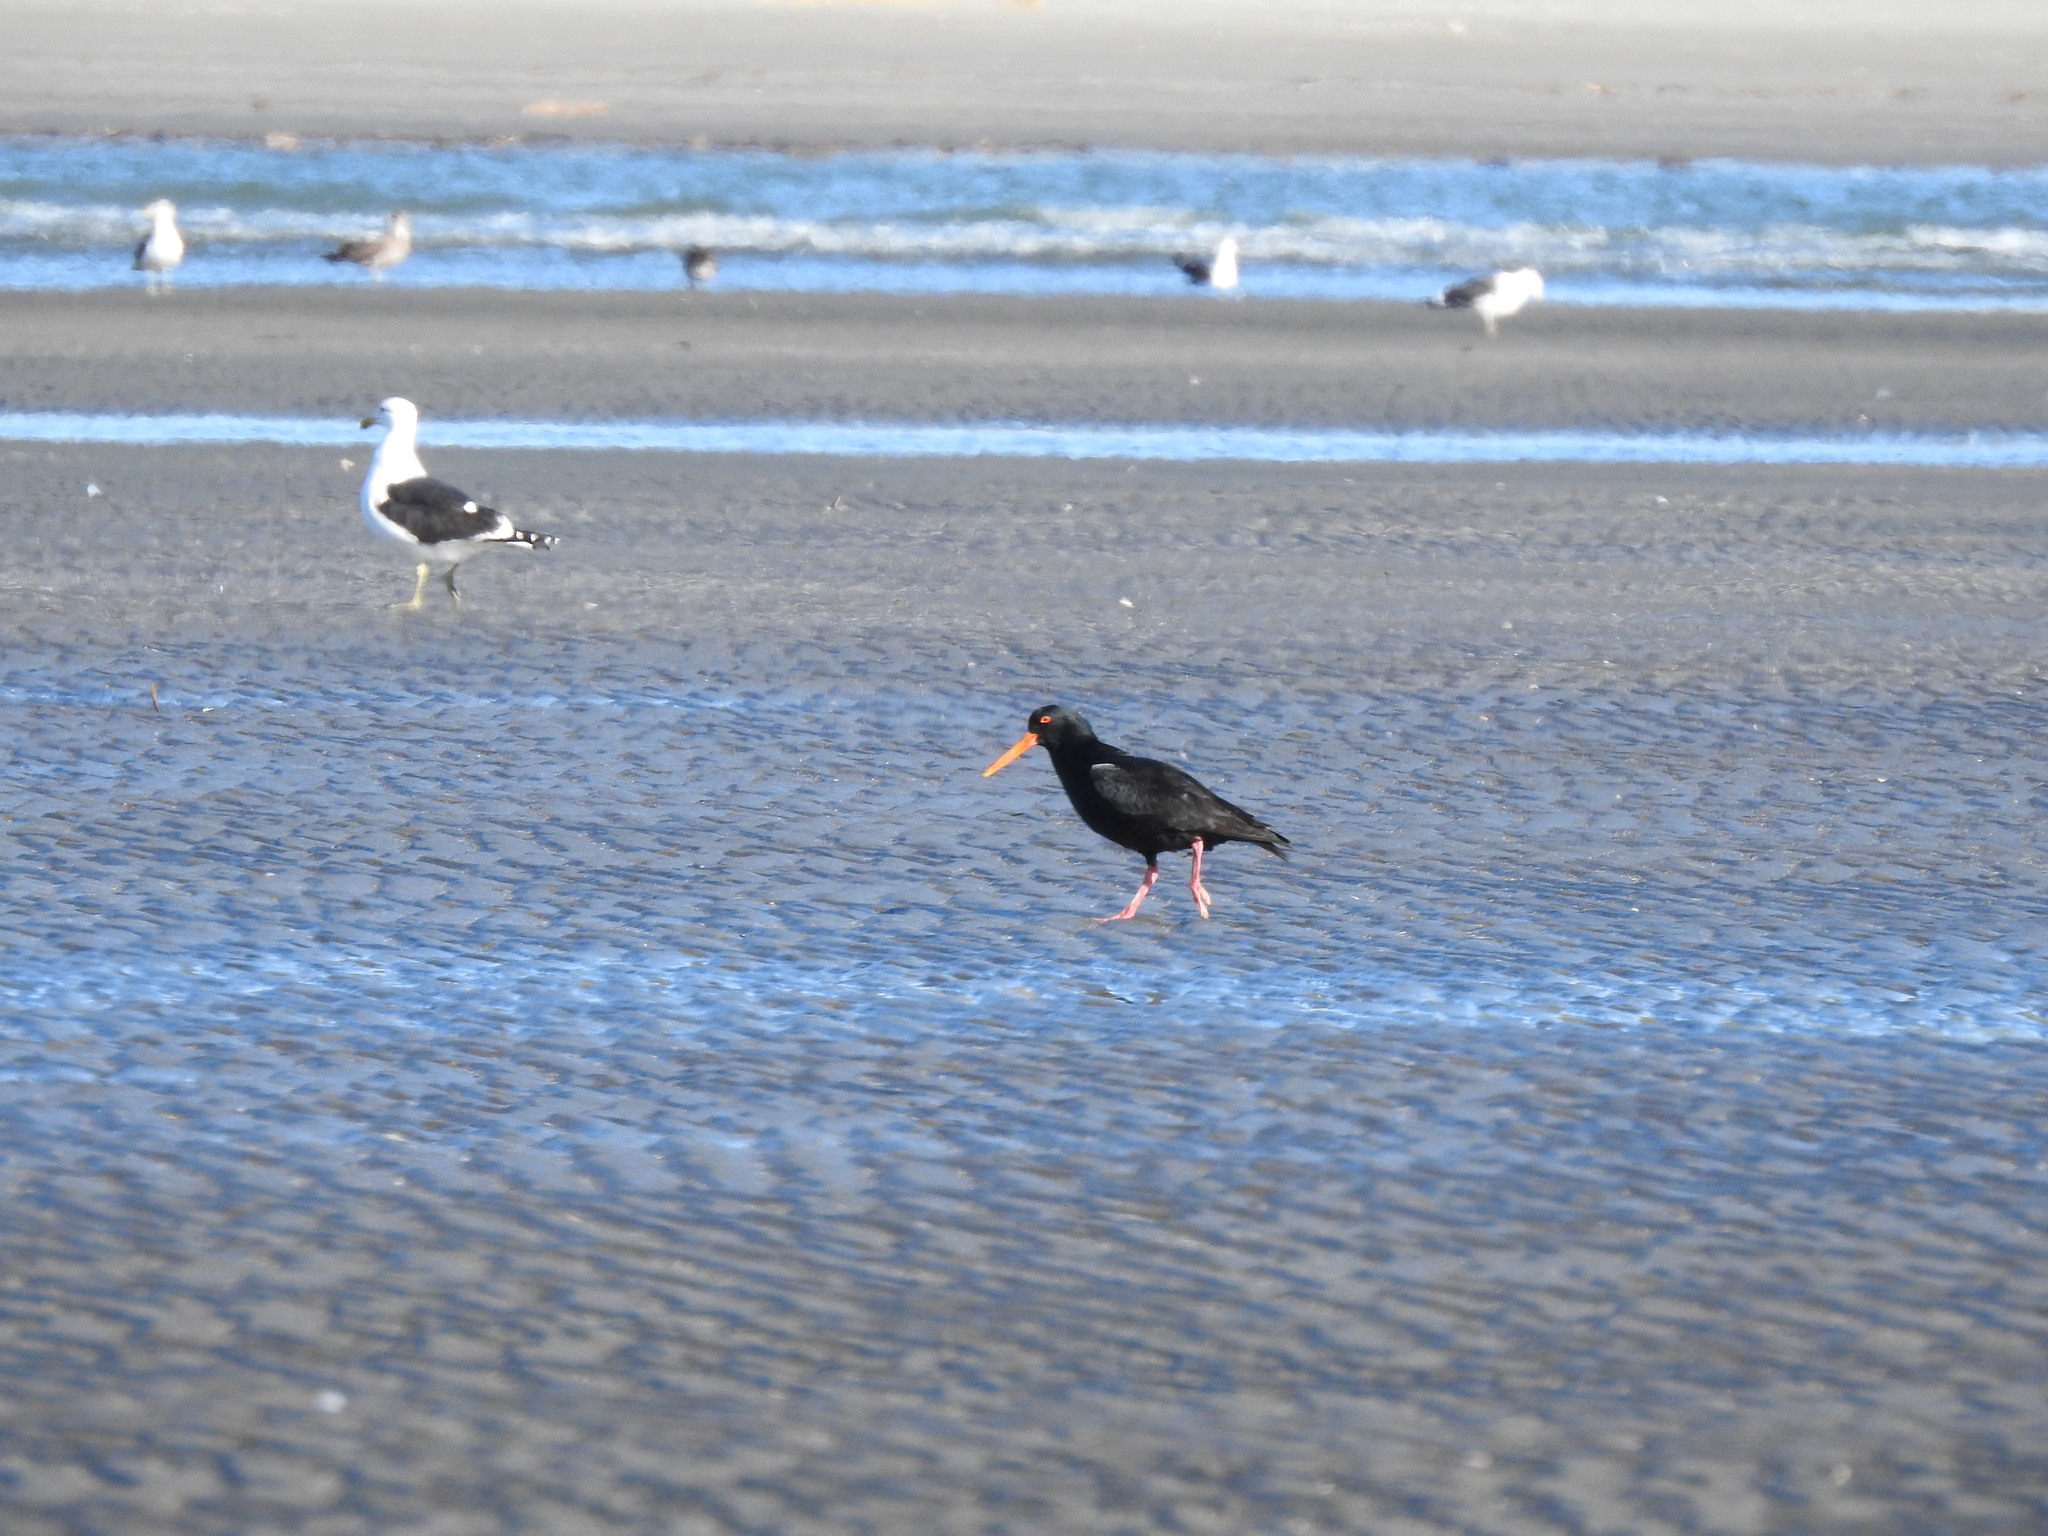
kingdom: Animalia
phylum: Chordata
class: Aves
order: Charadriiformes
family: Haematopodidae
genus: Haematopus
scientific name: Haematopus unicolor
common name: Variable oystercatcher
